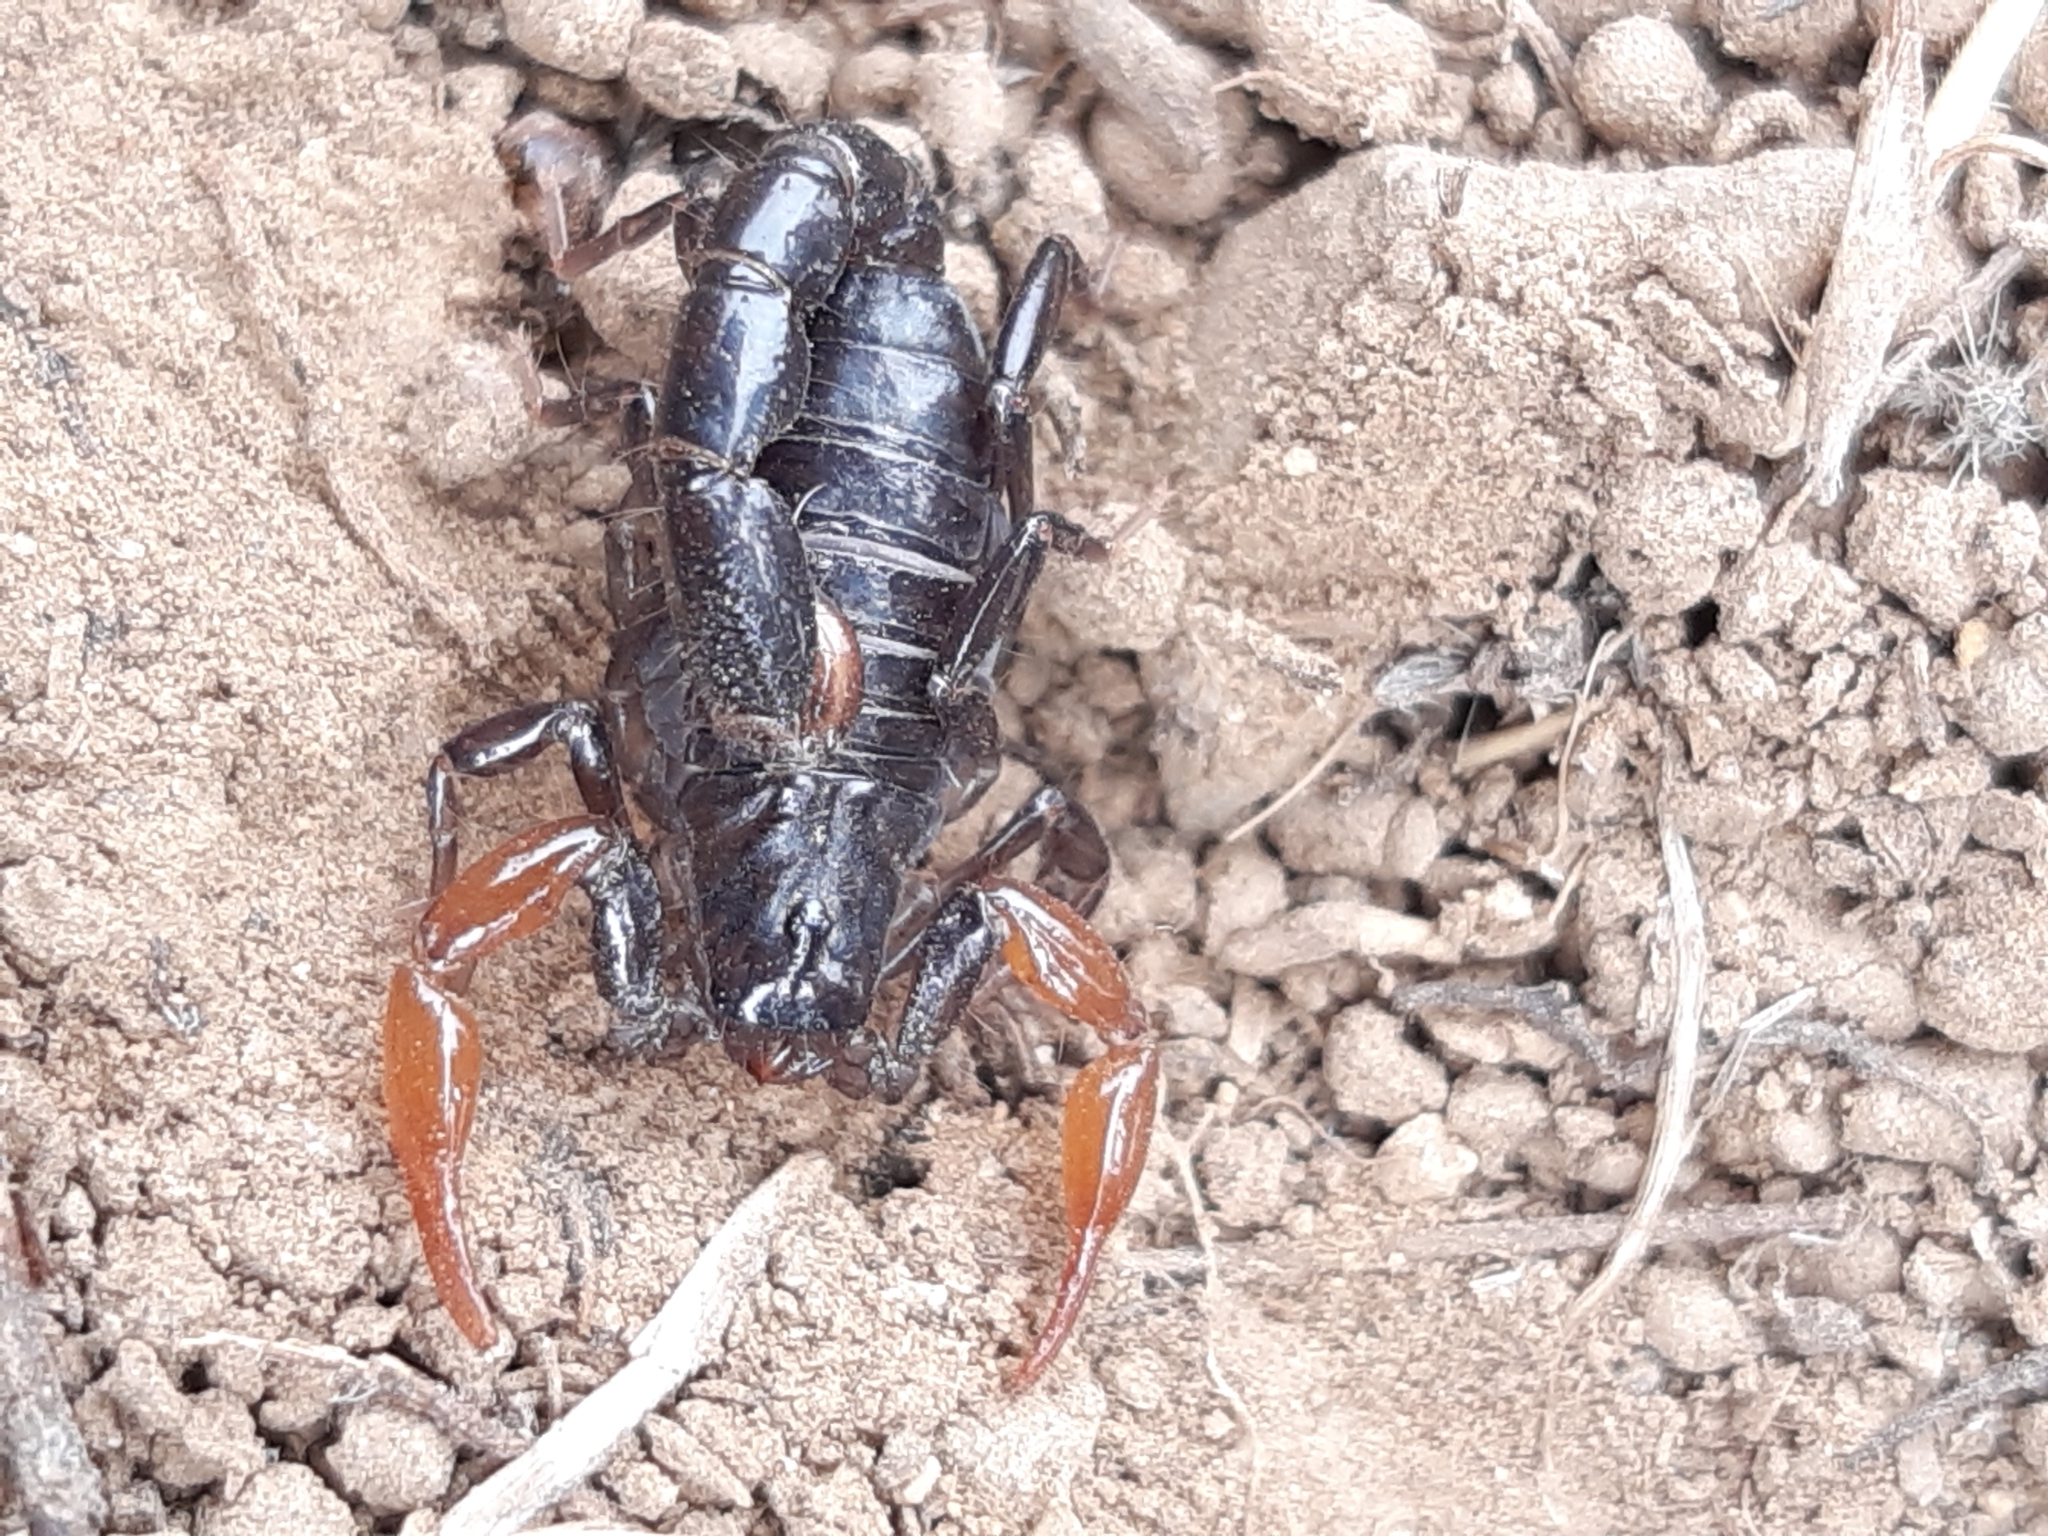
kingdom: Animalia
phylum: Arthropoda
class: Arachnida
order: Scorpiones
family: Caraboctonidae
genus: Caraboctonus
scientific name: Caraboctonus keyserlingi
